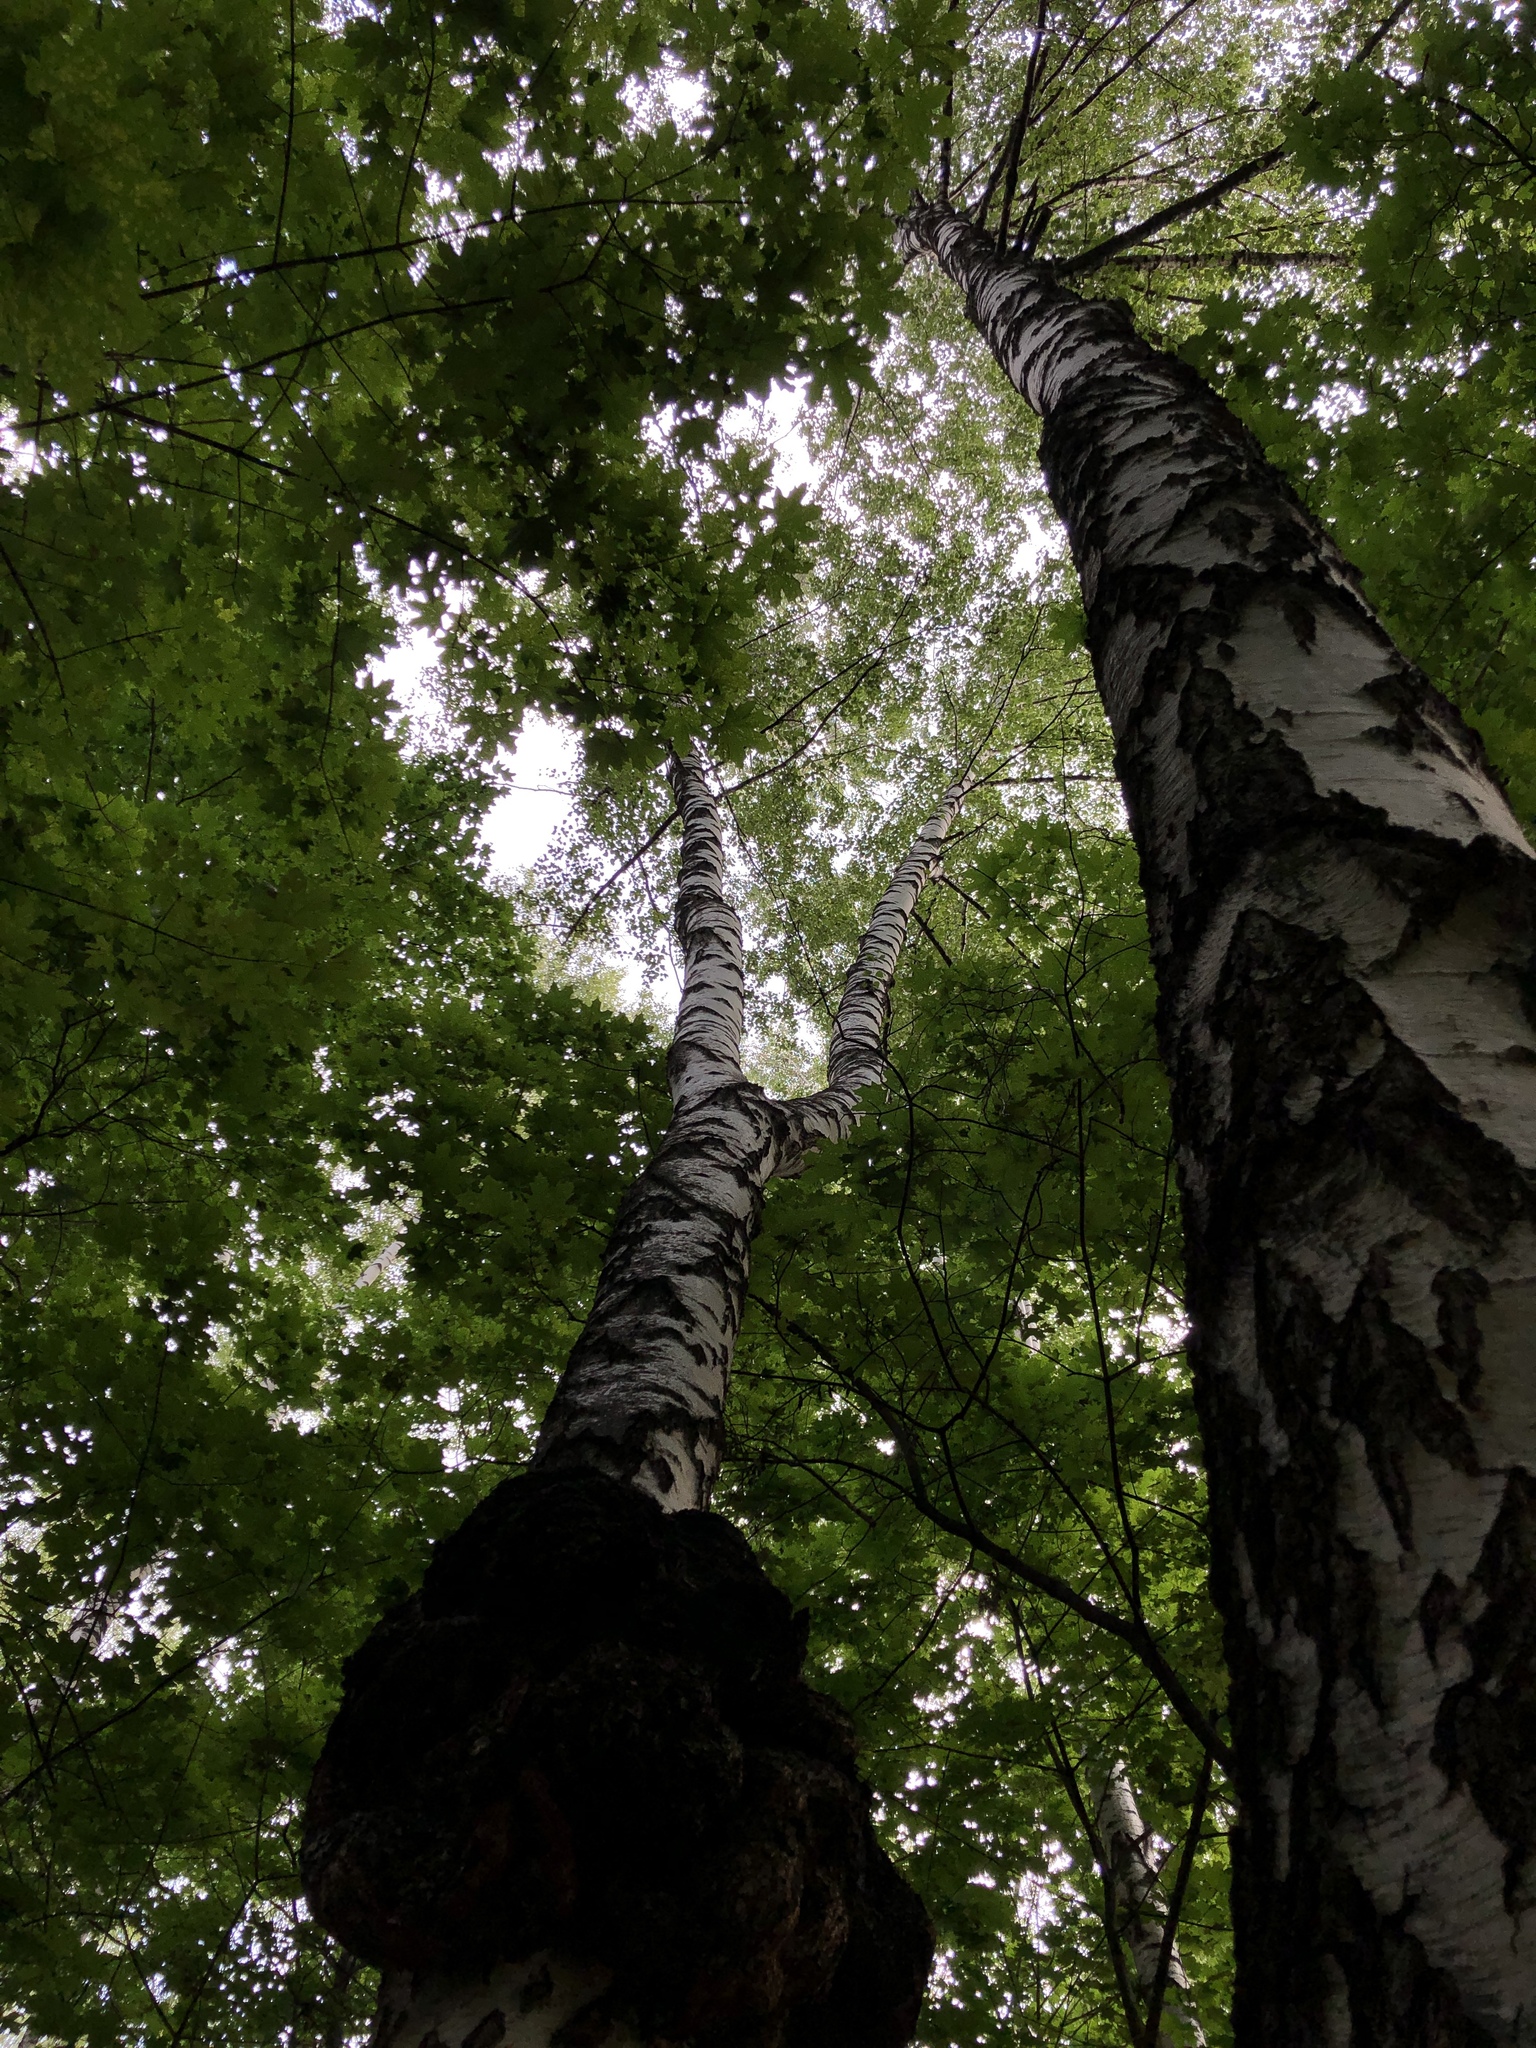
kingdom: Plantae
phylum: Tracheophyta
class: Magnoliopsida
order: Fagales
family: Betulaceae
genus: Betula
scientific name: Betula pendula
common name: Silver birch
